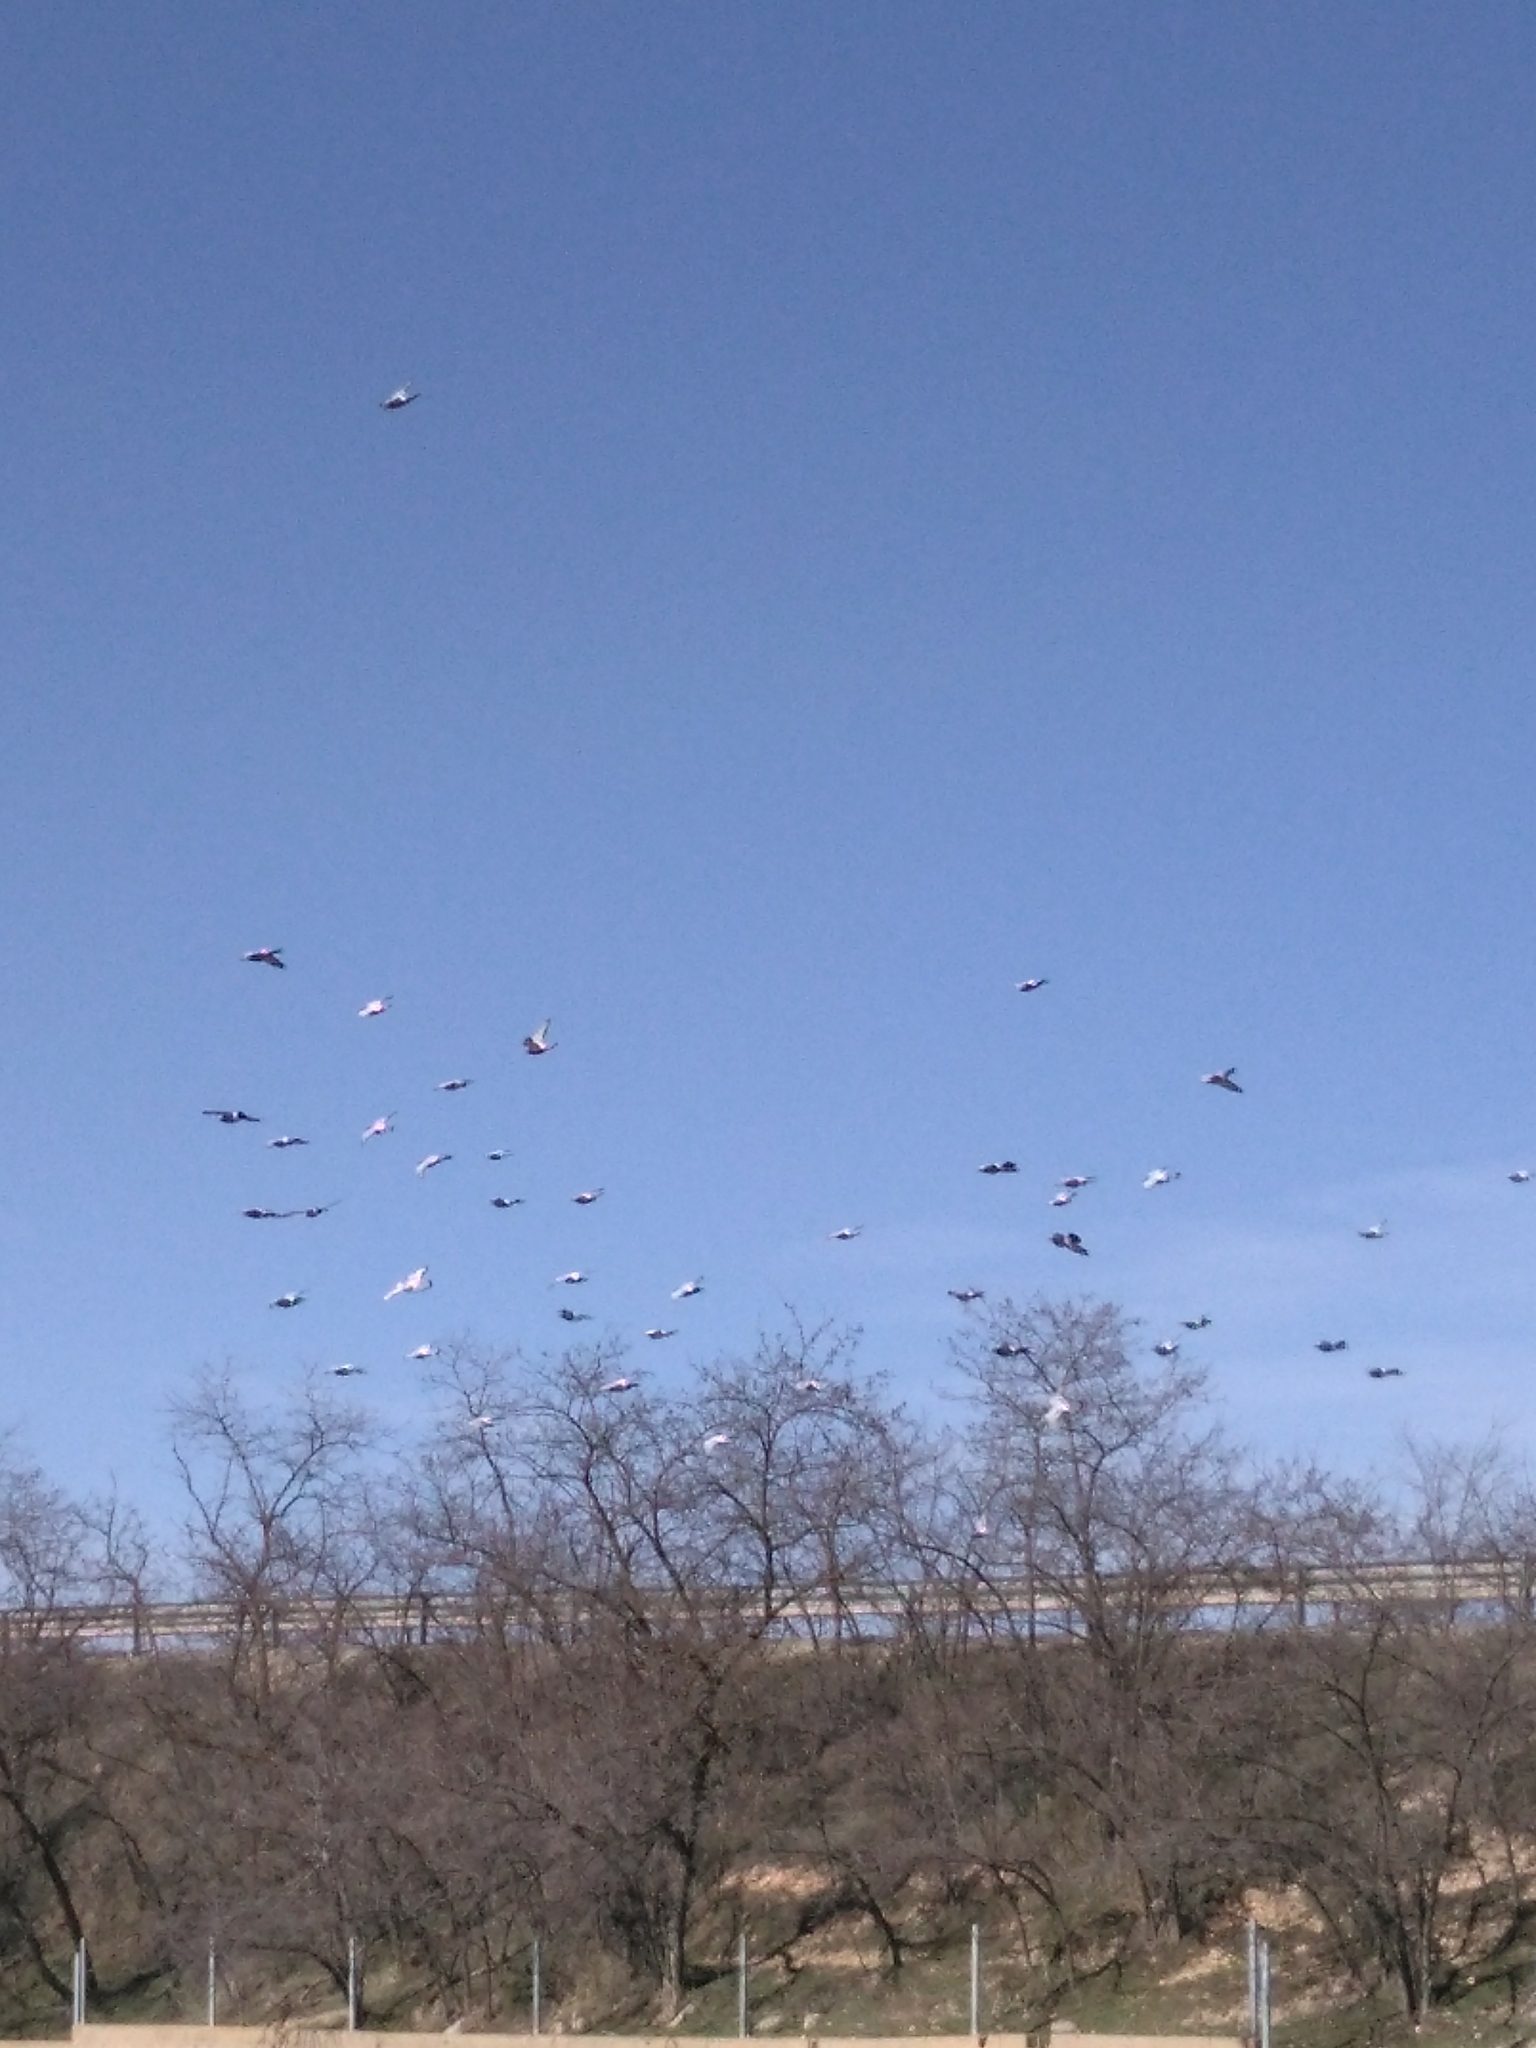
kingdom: Animalia
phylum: Chordata
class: Aves
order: Columbiformes
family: Columbidae
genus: Columba
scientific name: Columba livia
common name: Rock pigeon
